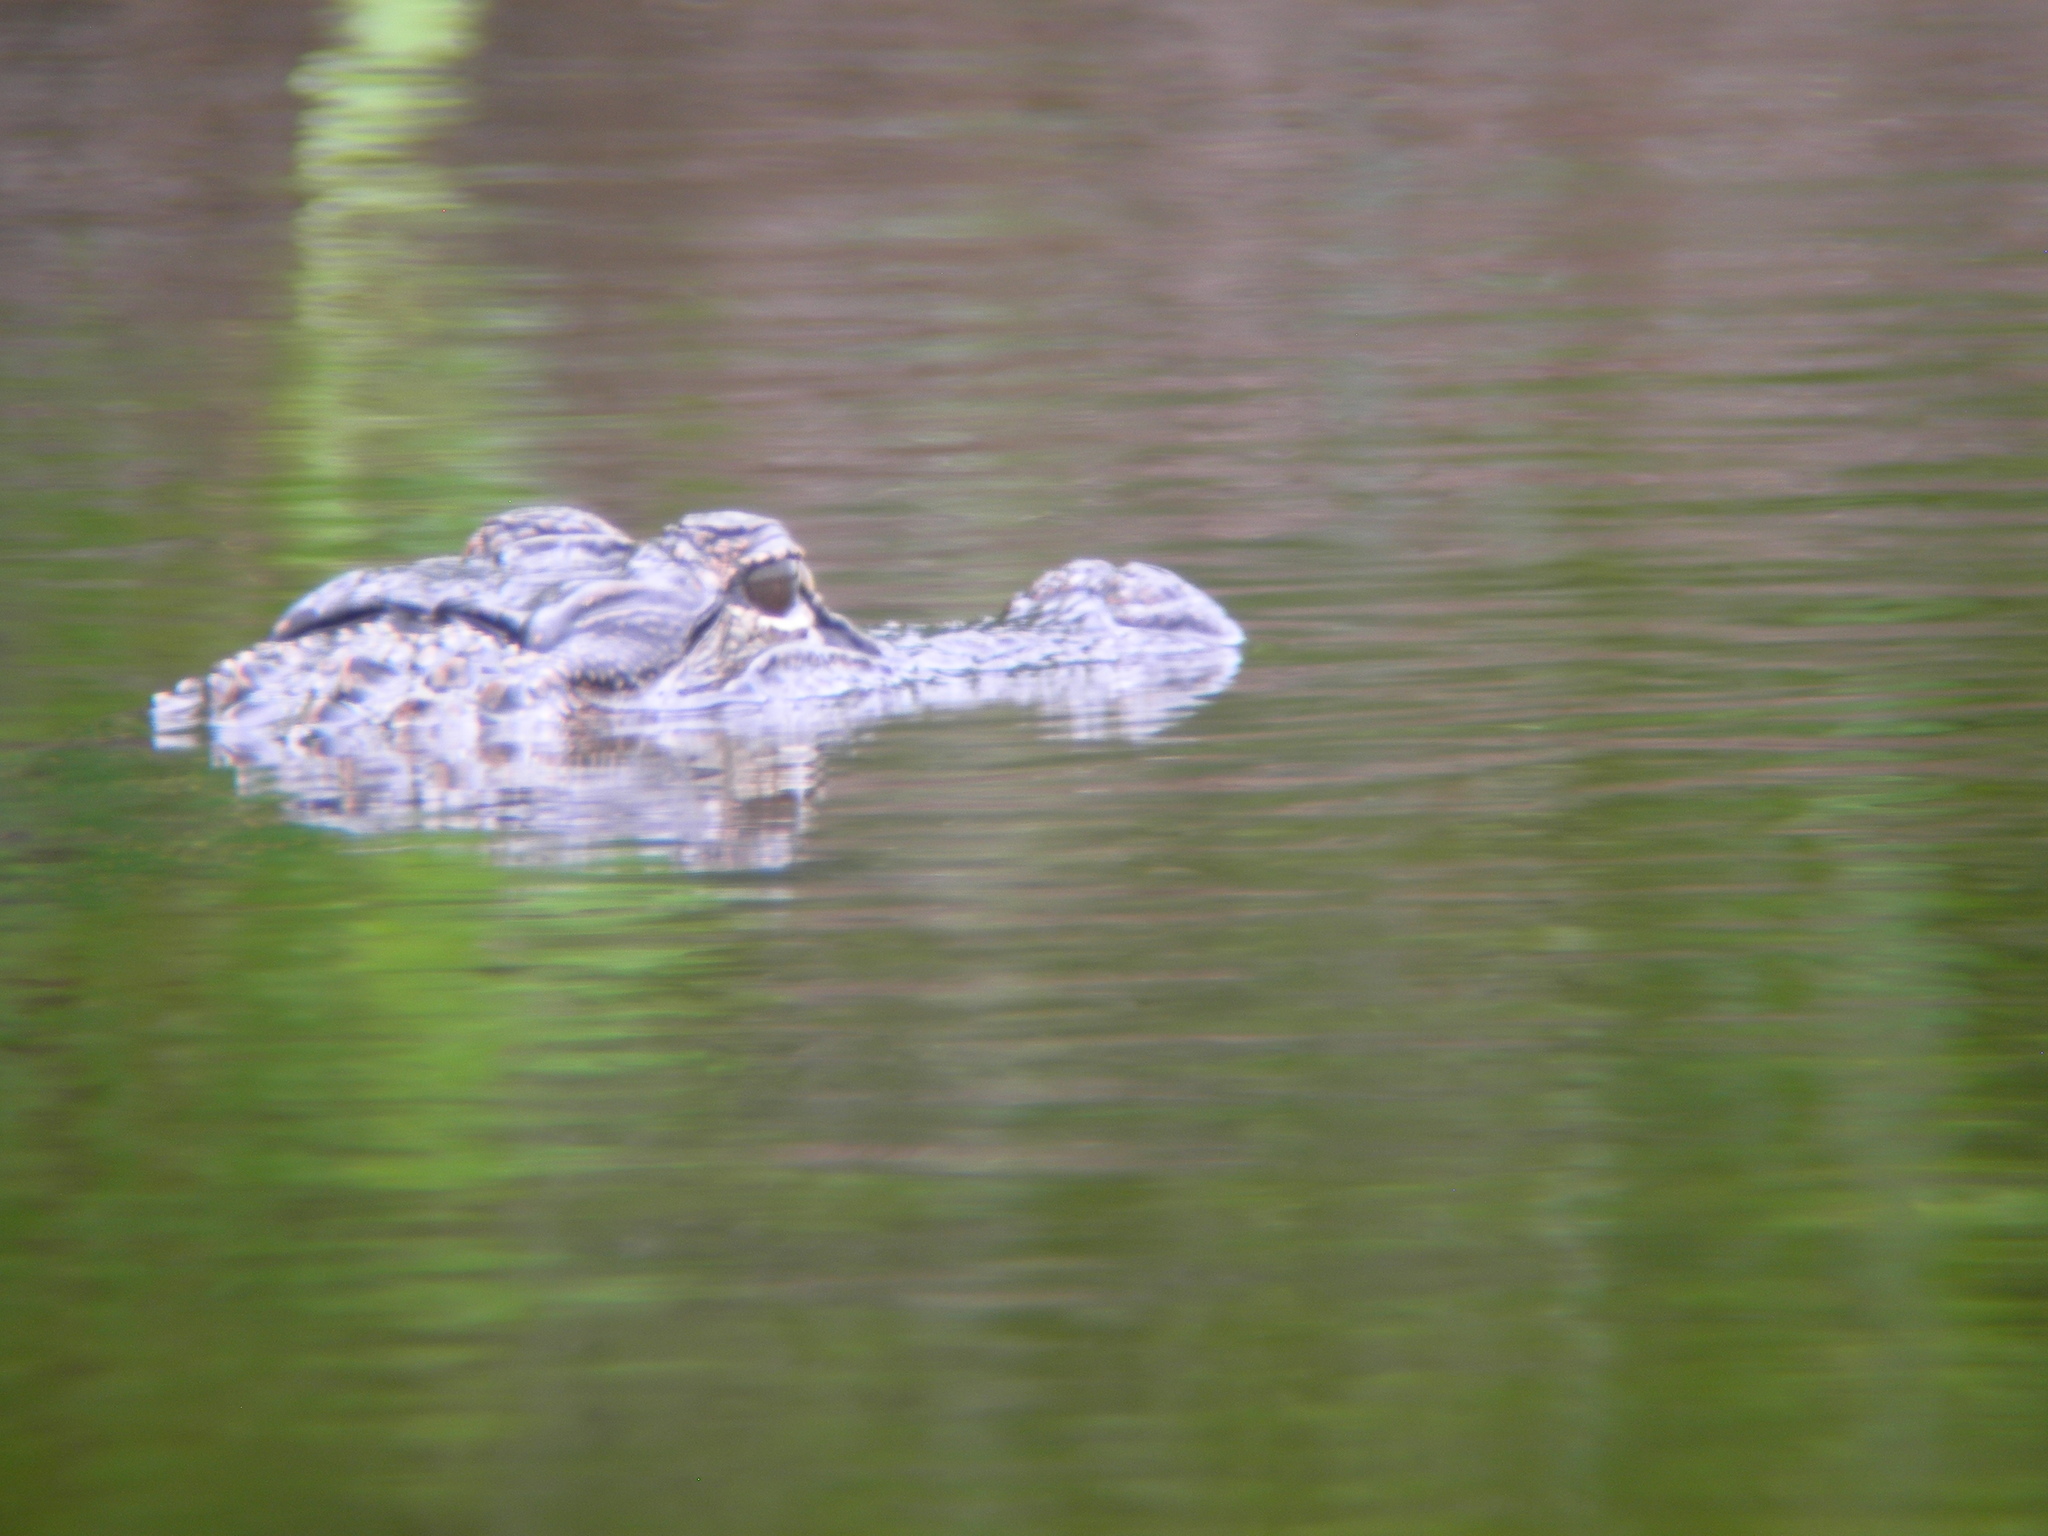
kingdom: Animalia
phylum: Chordata
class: Crocodylia
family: Alligatoridae
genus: Alligator
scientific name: Alligator mississippiensis
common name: American alligator
